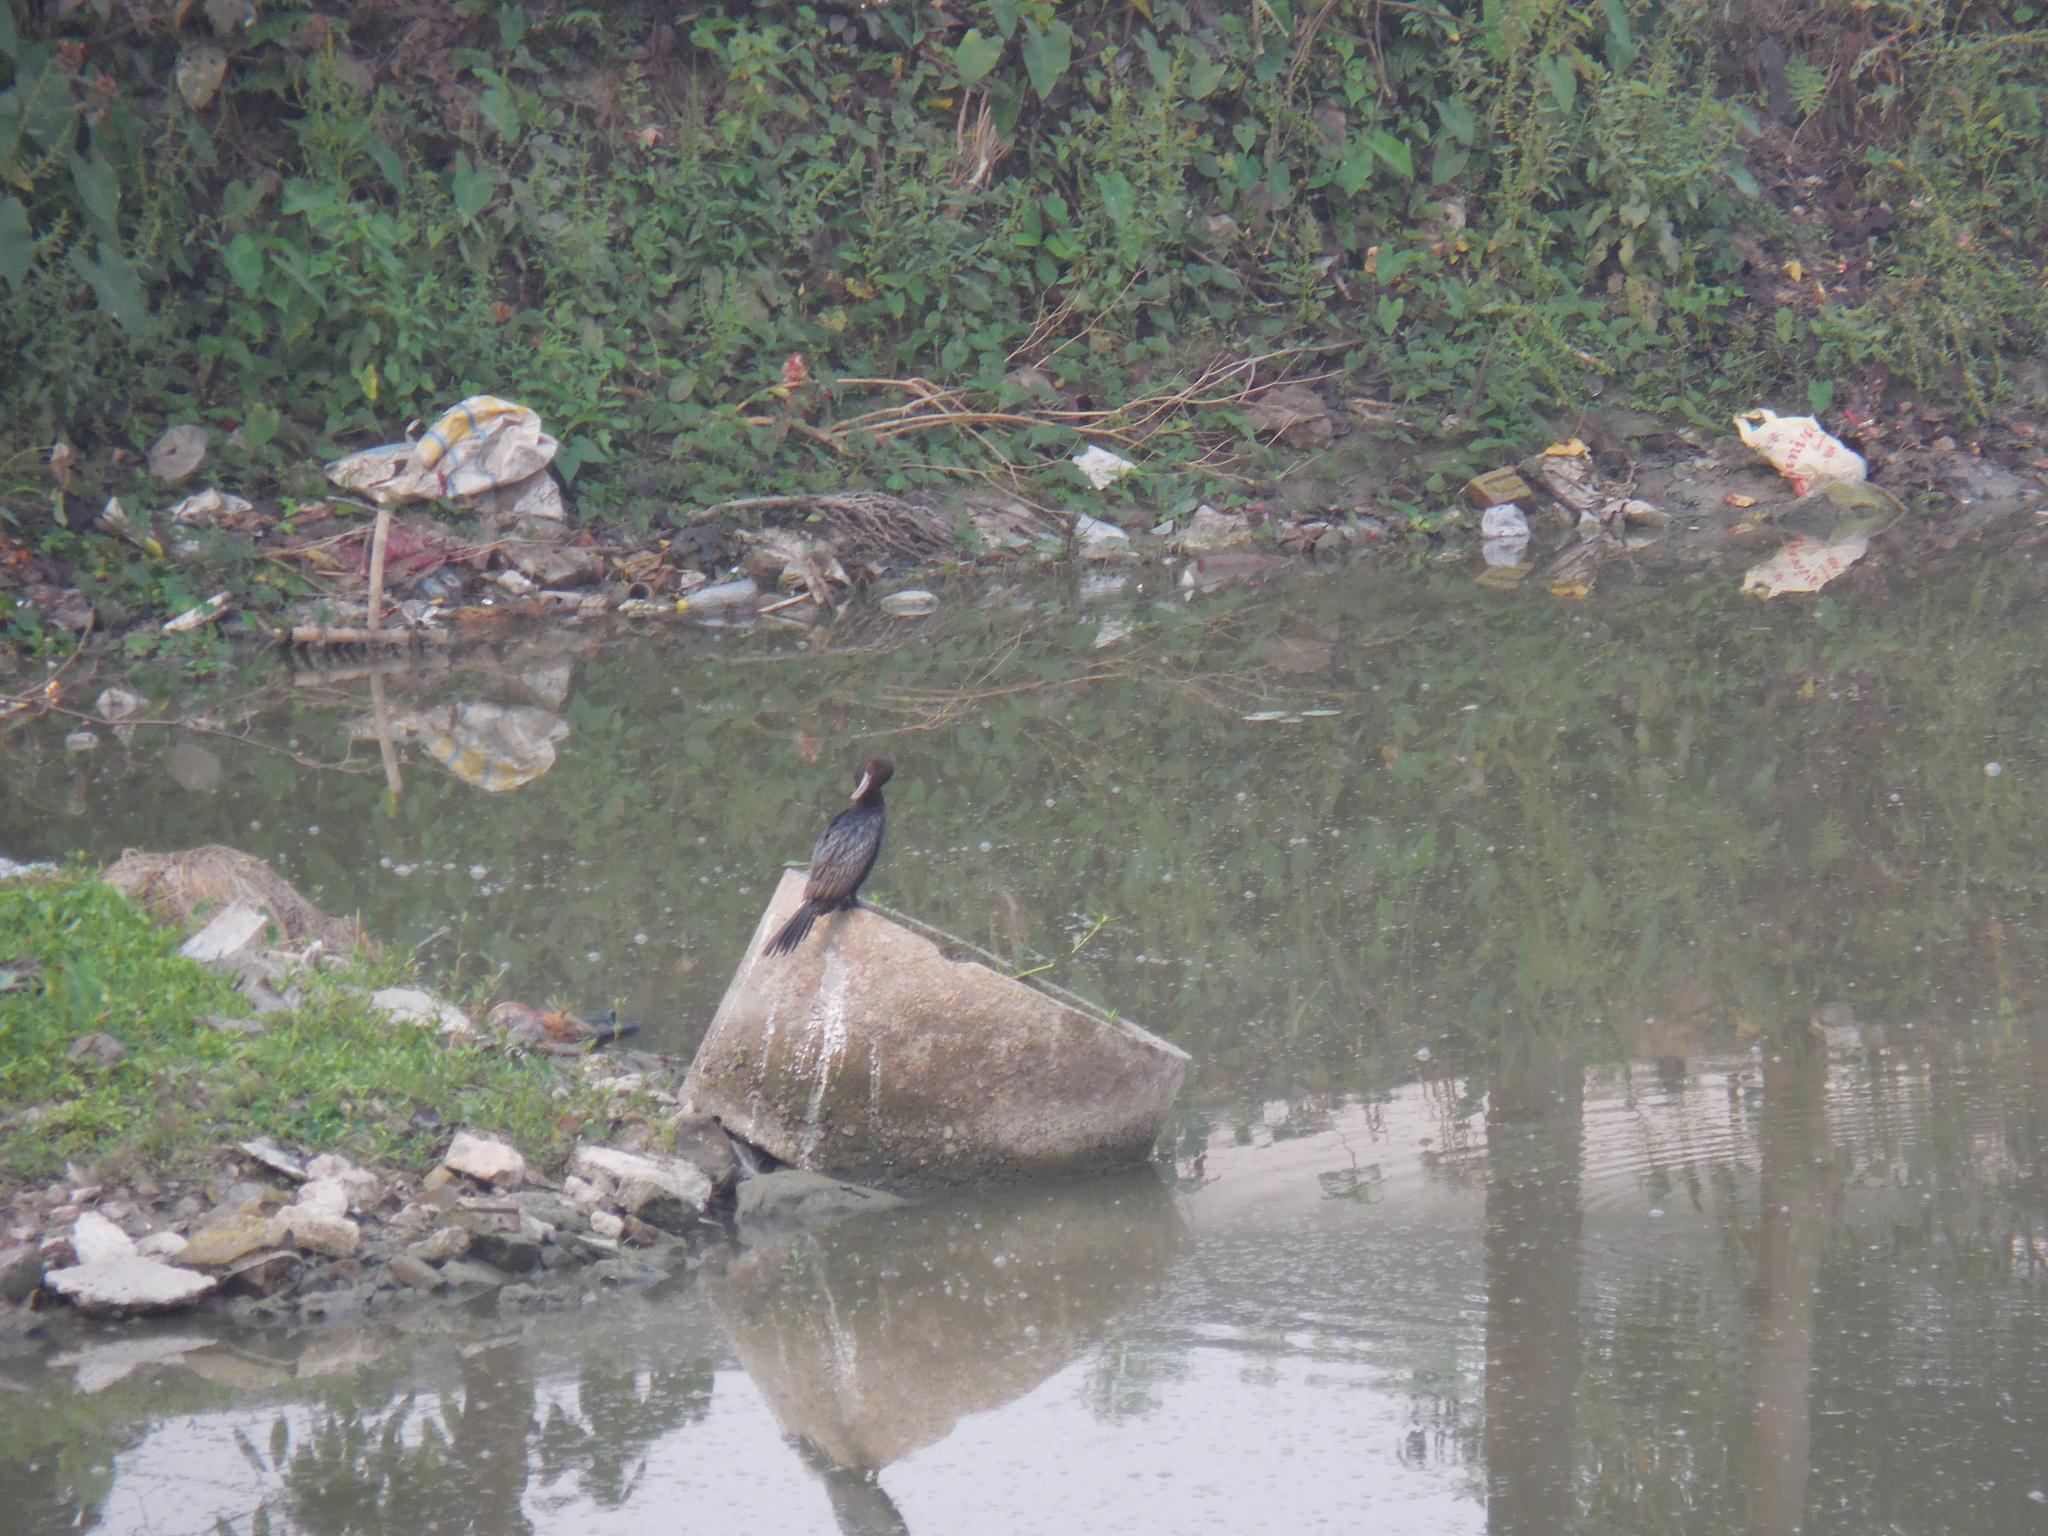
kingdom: Animalia
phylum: Chordata
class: Aves
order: Suliformes
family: Phalacrocoracidae
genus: Microcarbo
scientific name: Microcarbo niger
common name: Little cormorant
